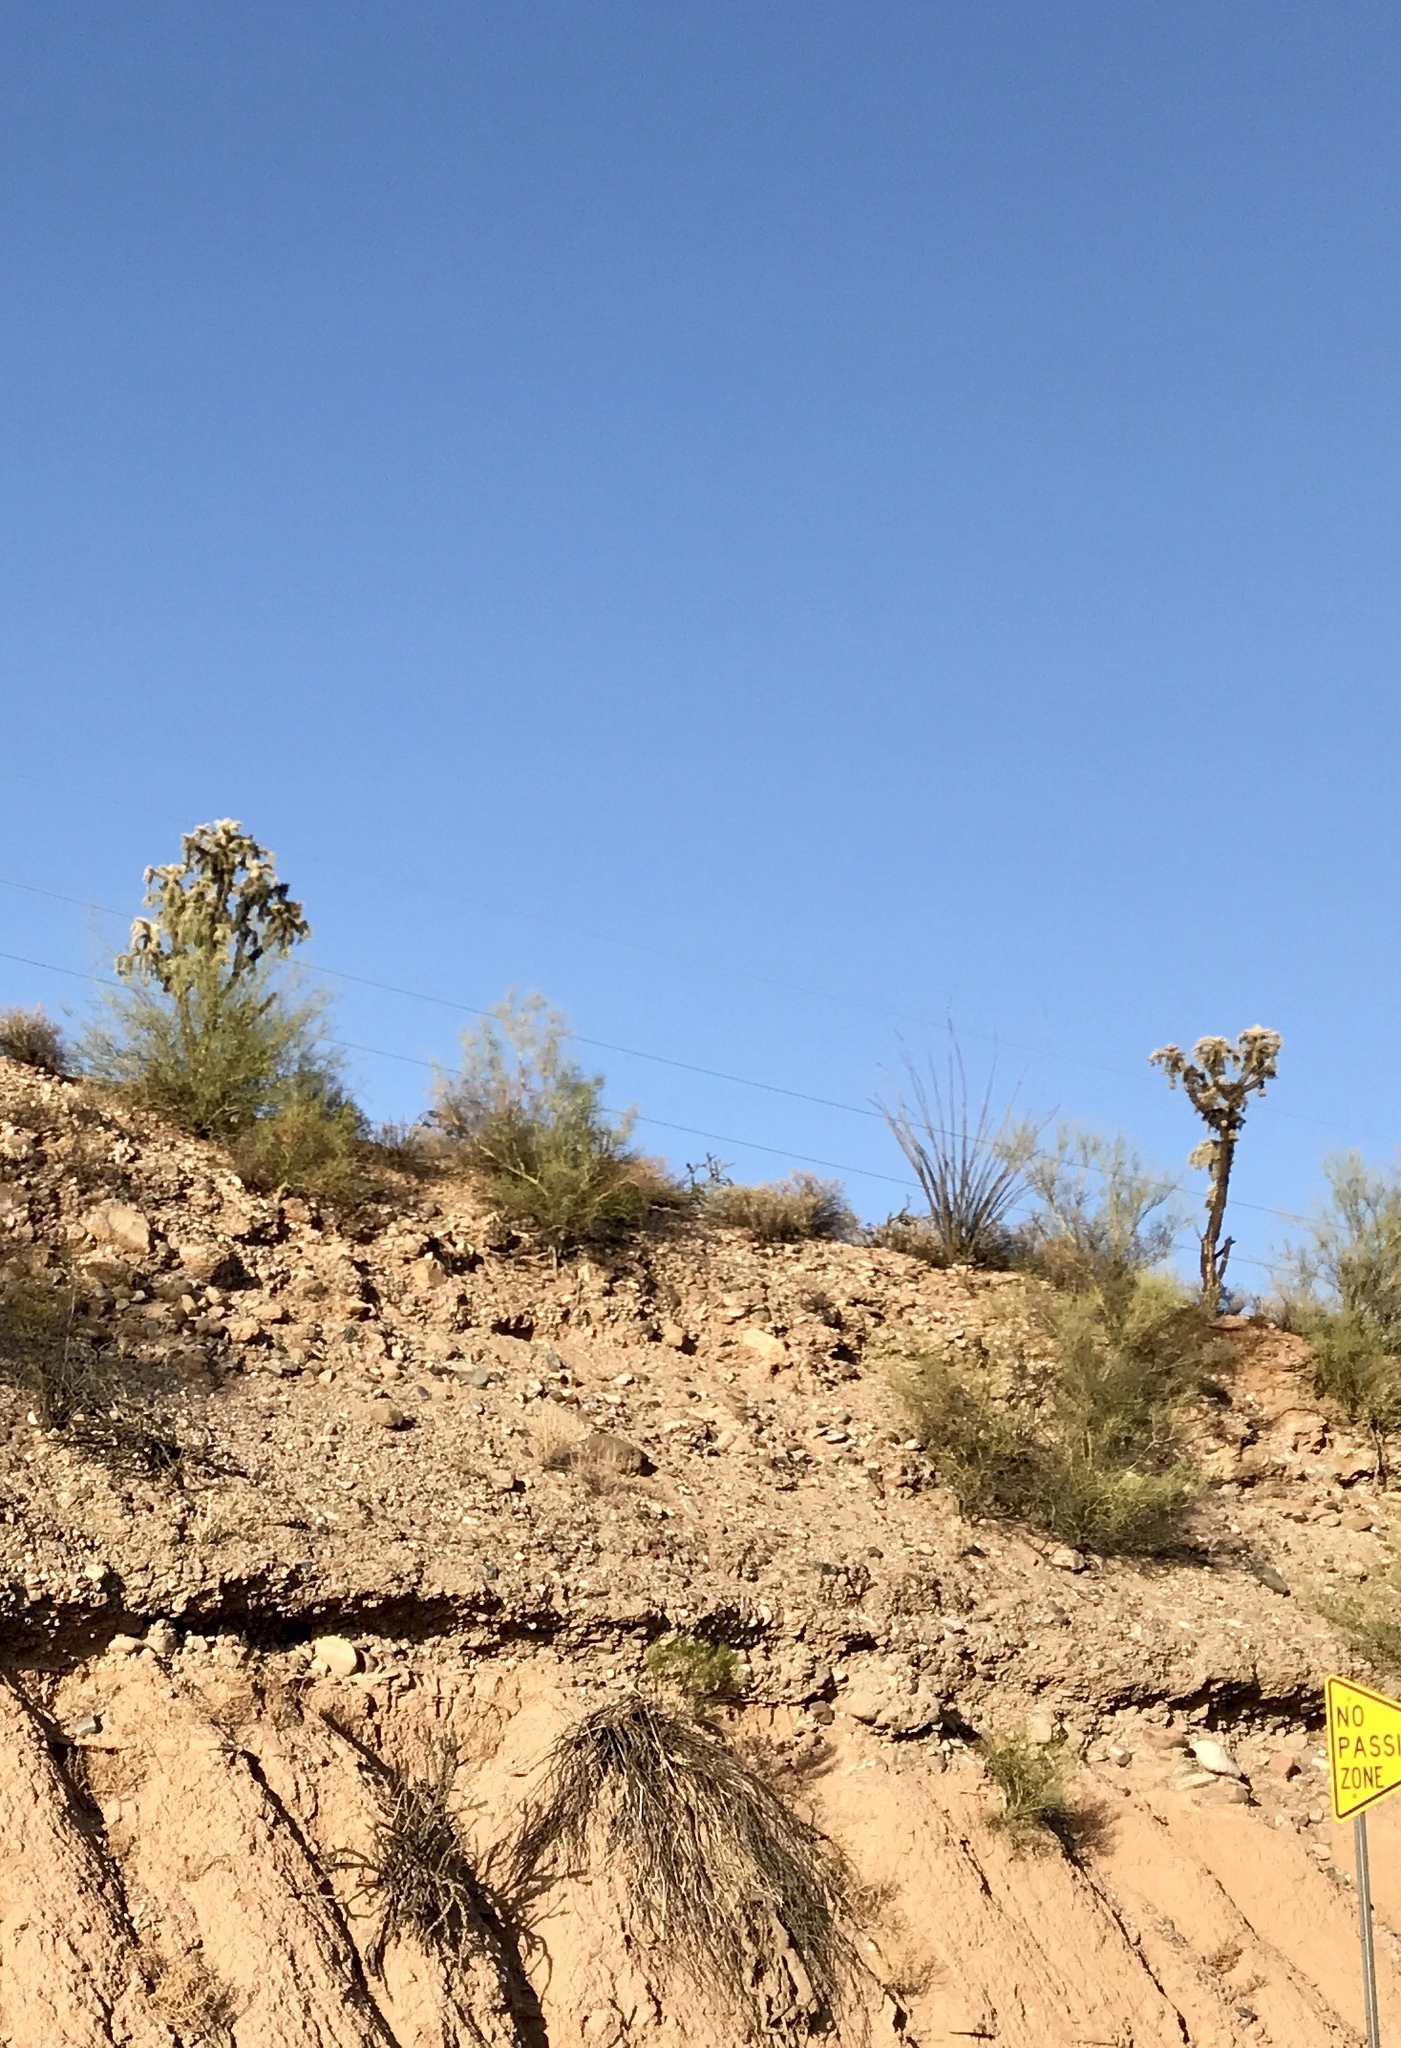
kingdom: Plantae
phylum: Tracheophyta
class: Magnoliopsida
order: Caryophyllales
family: Cactaceae
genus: Cylindropuntia
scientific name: Cylindropuntia fulgida
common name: Jumping cholla
